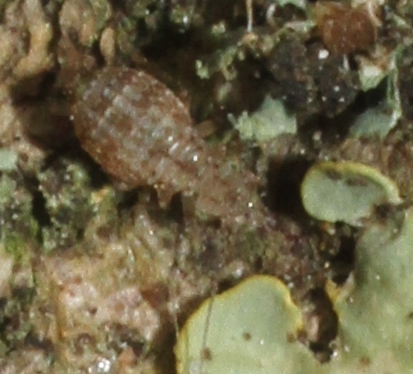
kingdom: Animalia
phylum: Arthropoda
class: Insecta
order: Psocodea
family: Trogiidae
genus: Cerobasis
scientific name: Cerobasis guestfalica
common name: Book lice
